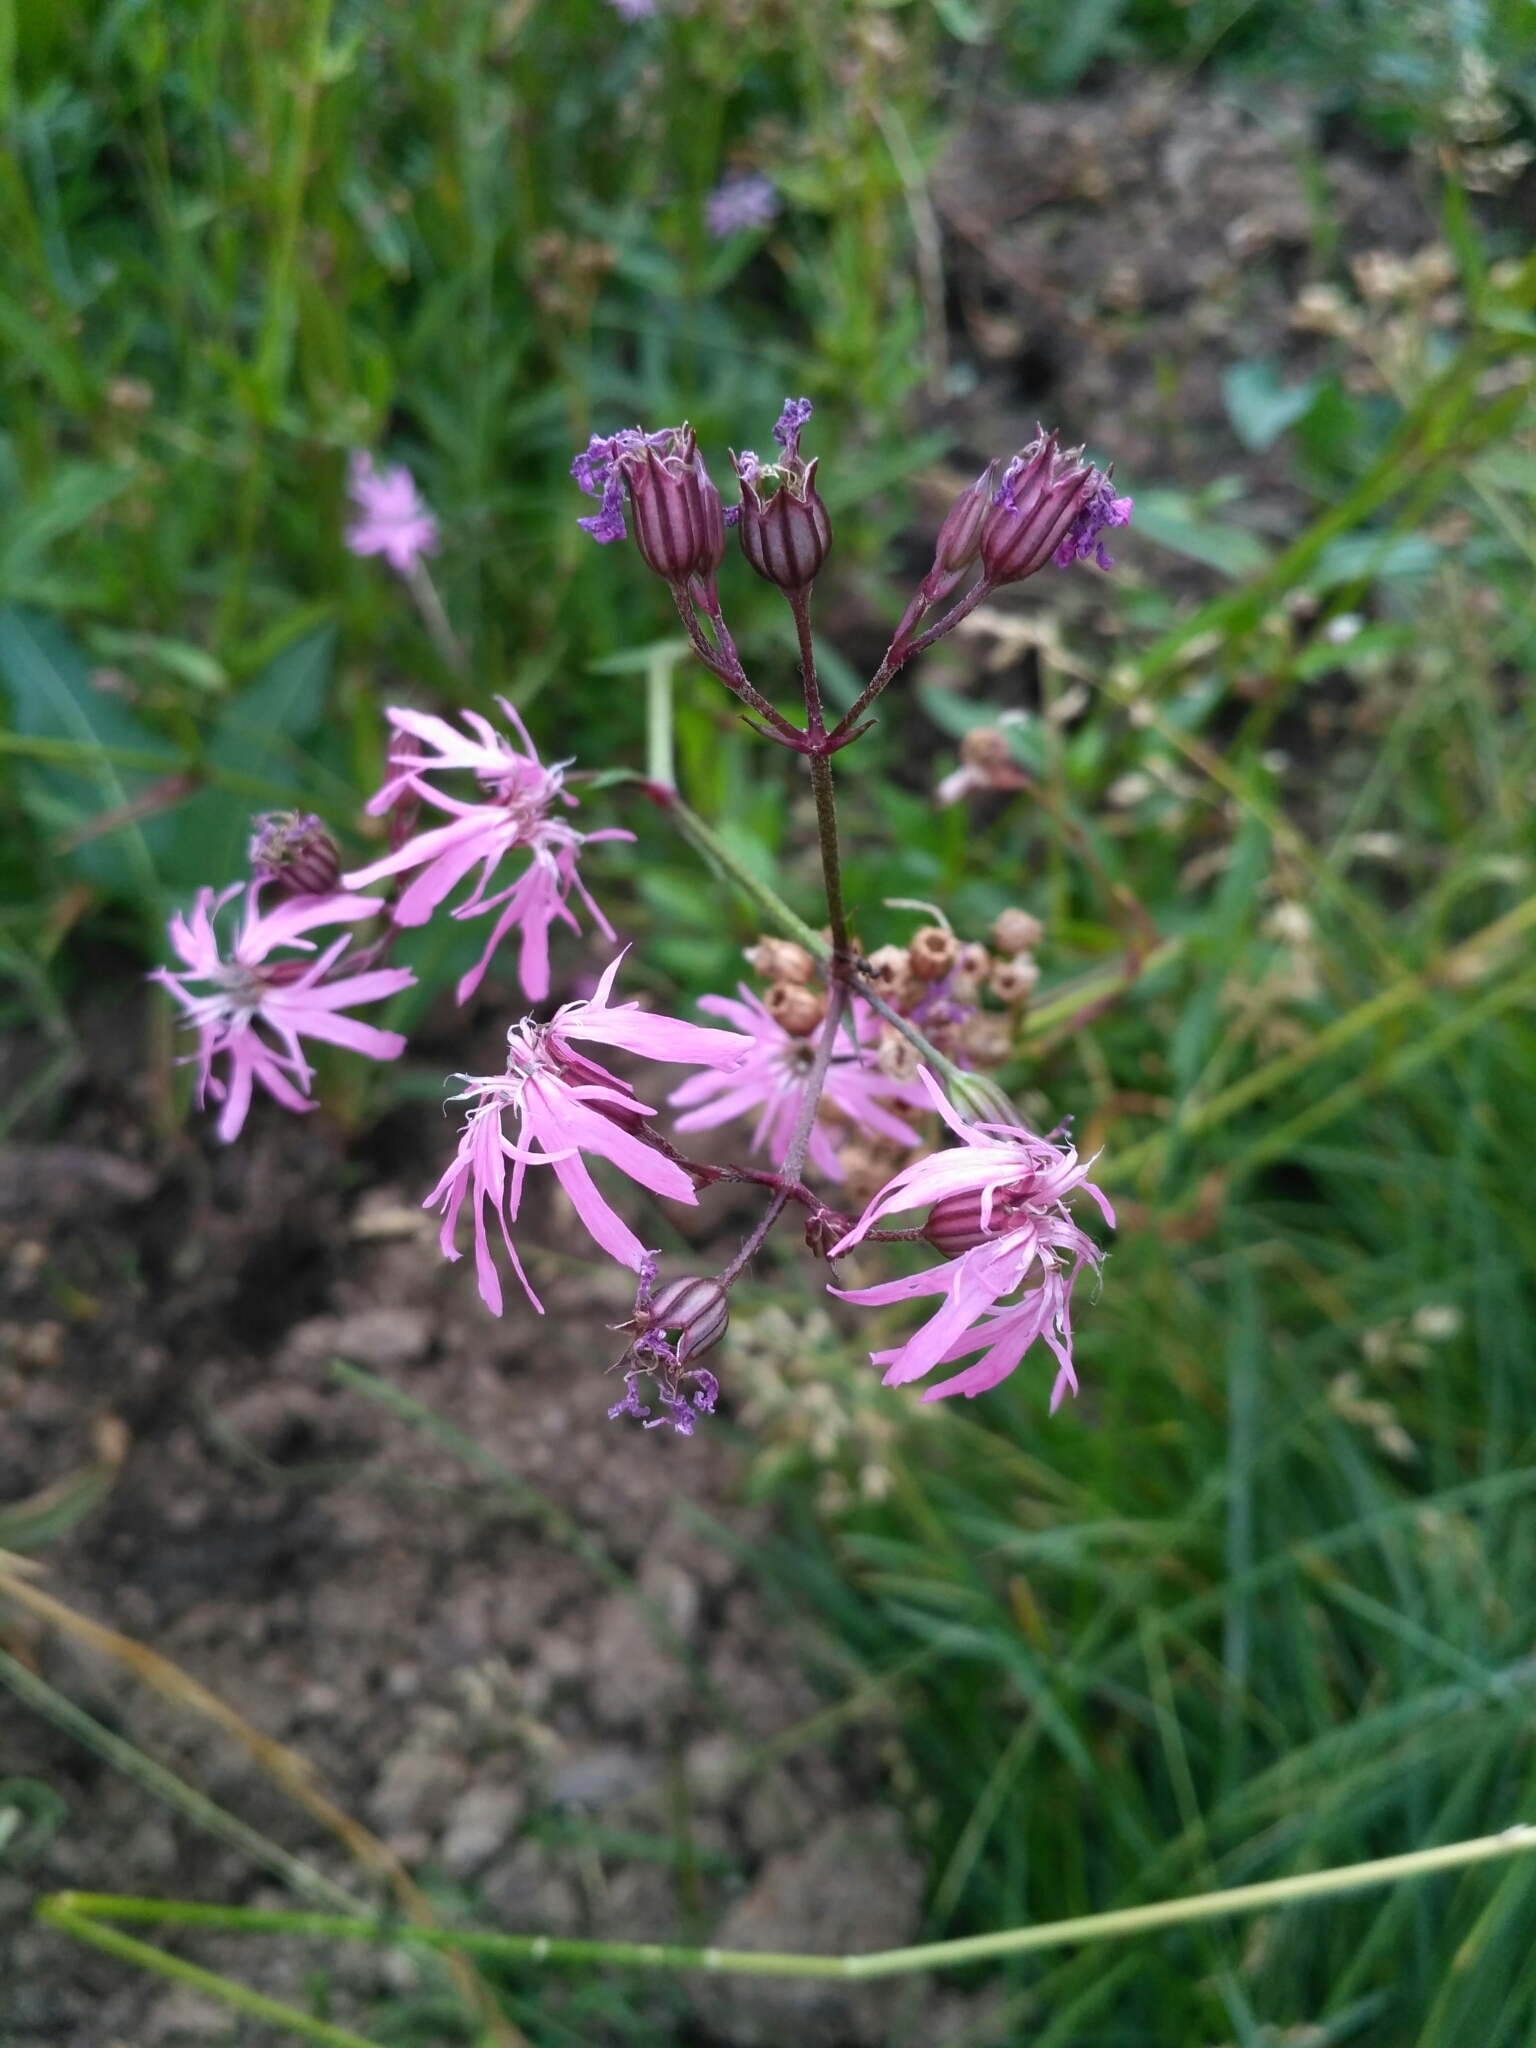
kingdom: Plantae
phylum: Tracheophyta
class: Magnoliopsida
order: Caryophyllales
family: Caryophyllaceae
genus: Silene
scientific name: Silene flos-cuculi
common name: Ragged-robin
